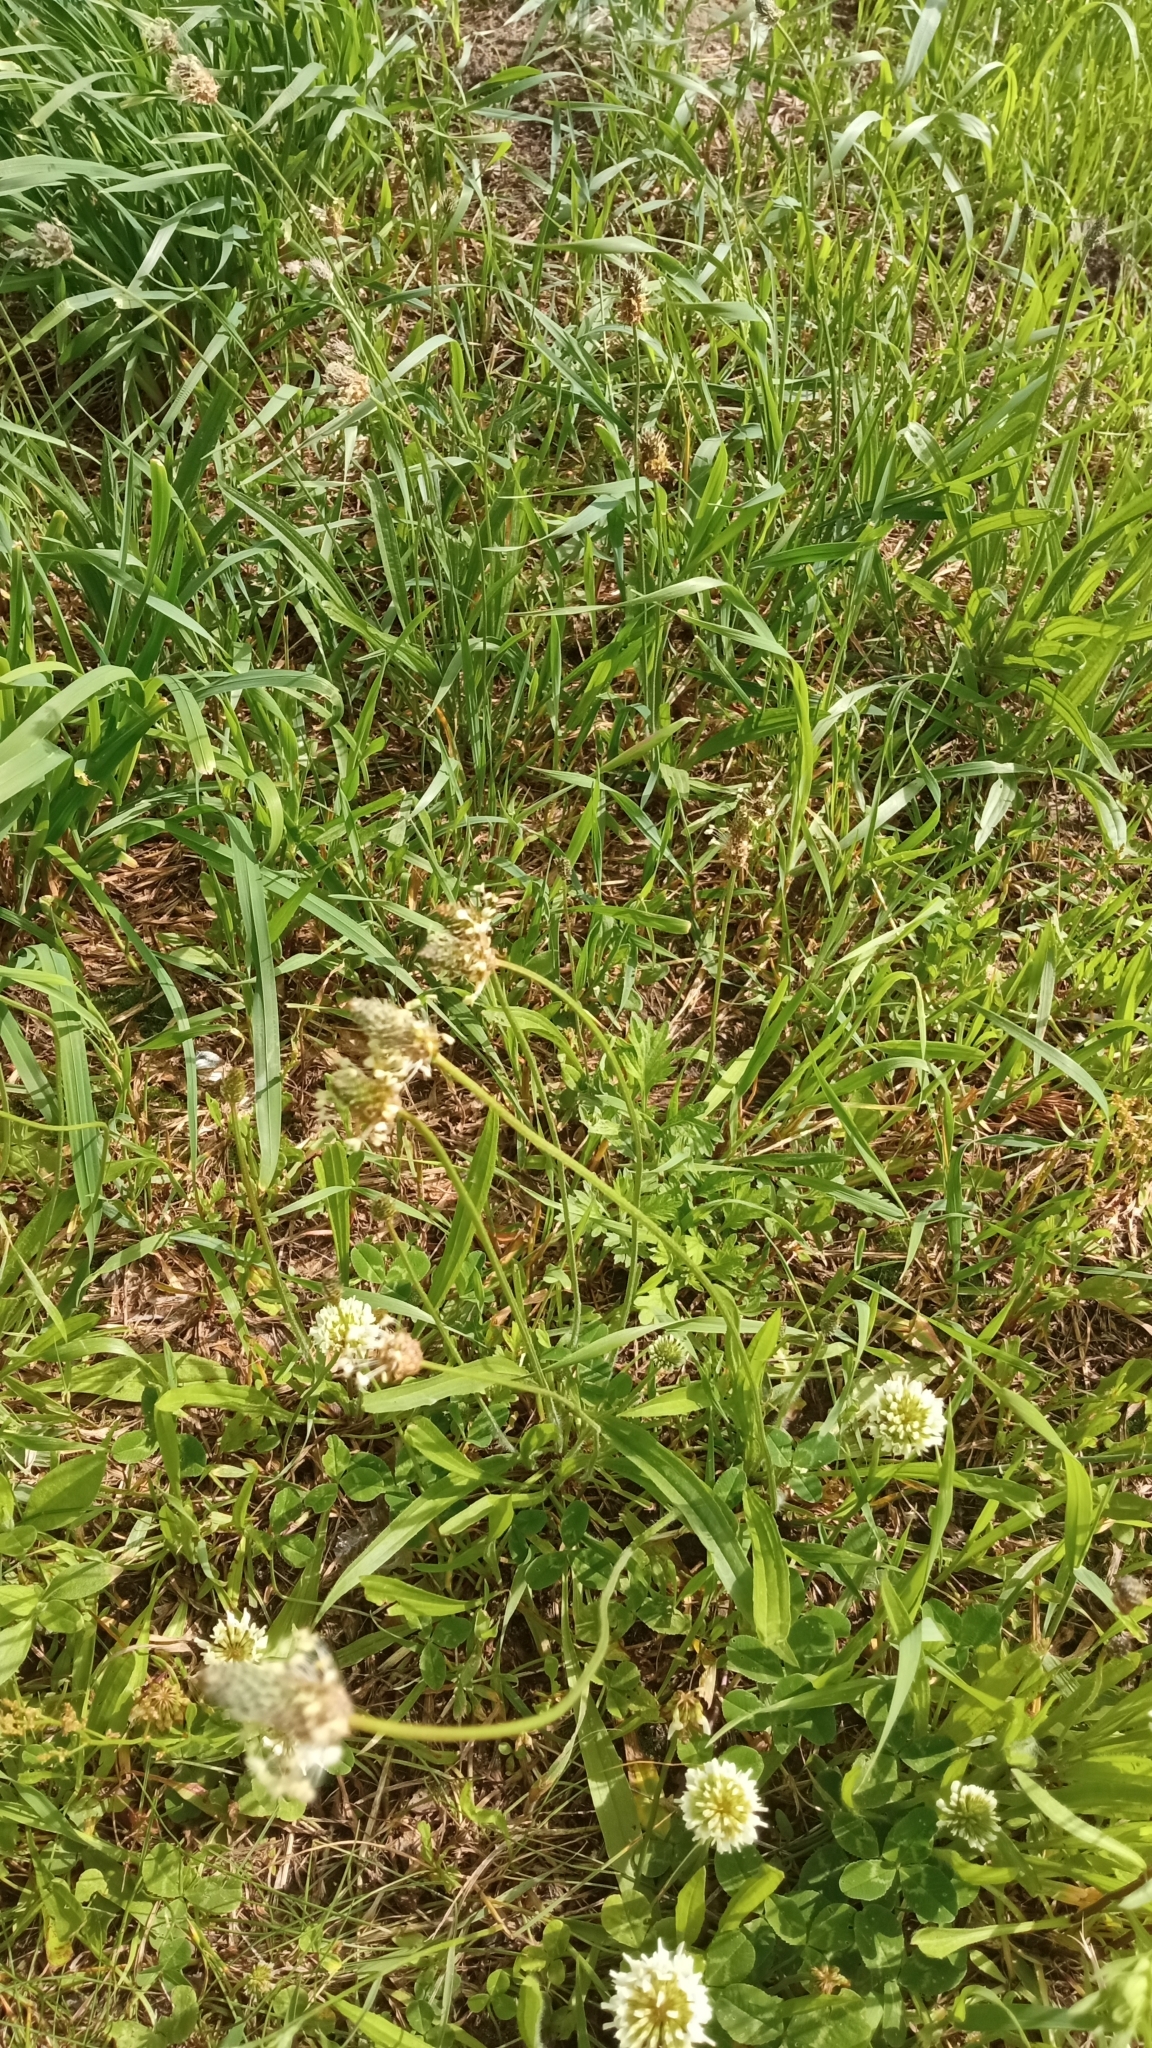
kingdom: Plantae
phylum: Tracheophyta
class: Magnoliopsida
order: Lamiales
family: Plantaginaceae
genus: Plantago
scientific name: Plantago lanceolata
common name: Ribwort plantain
